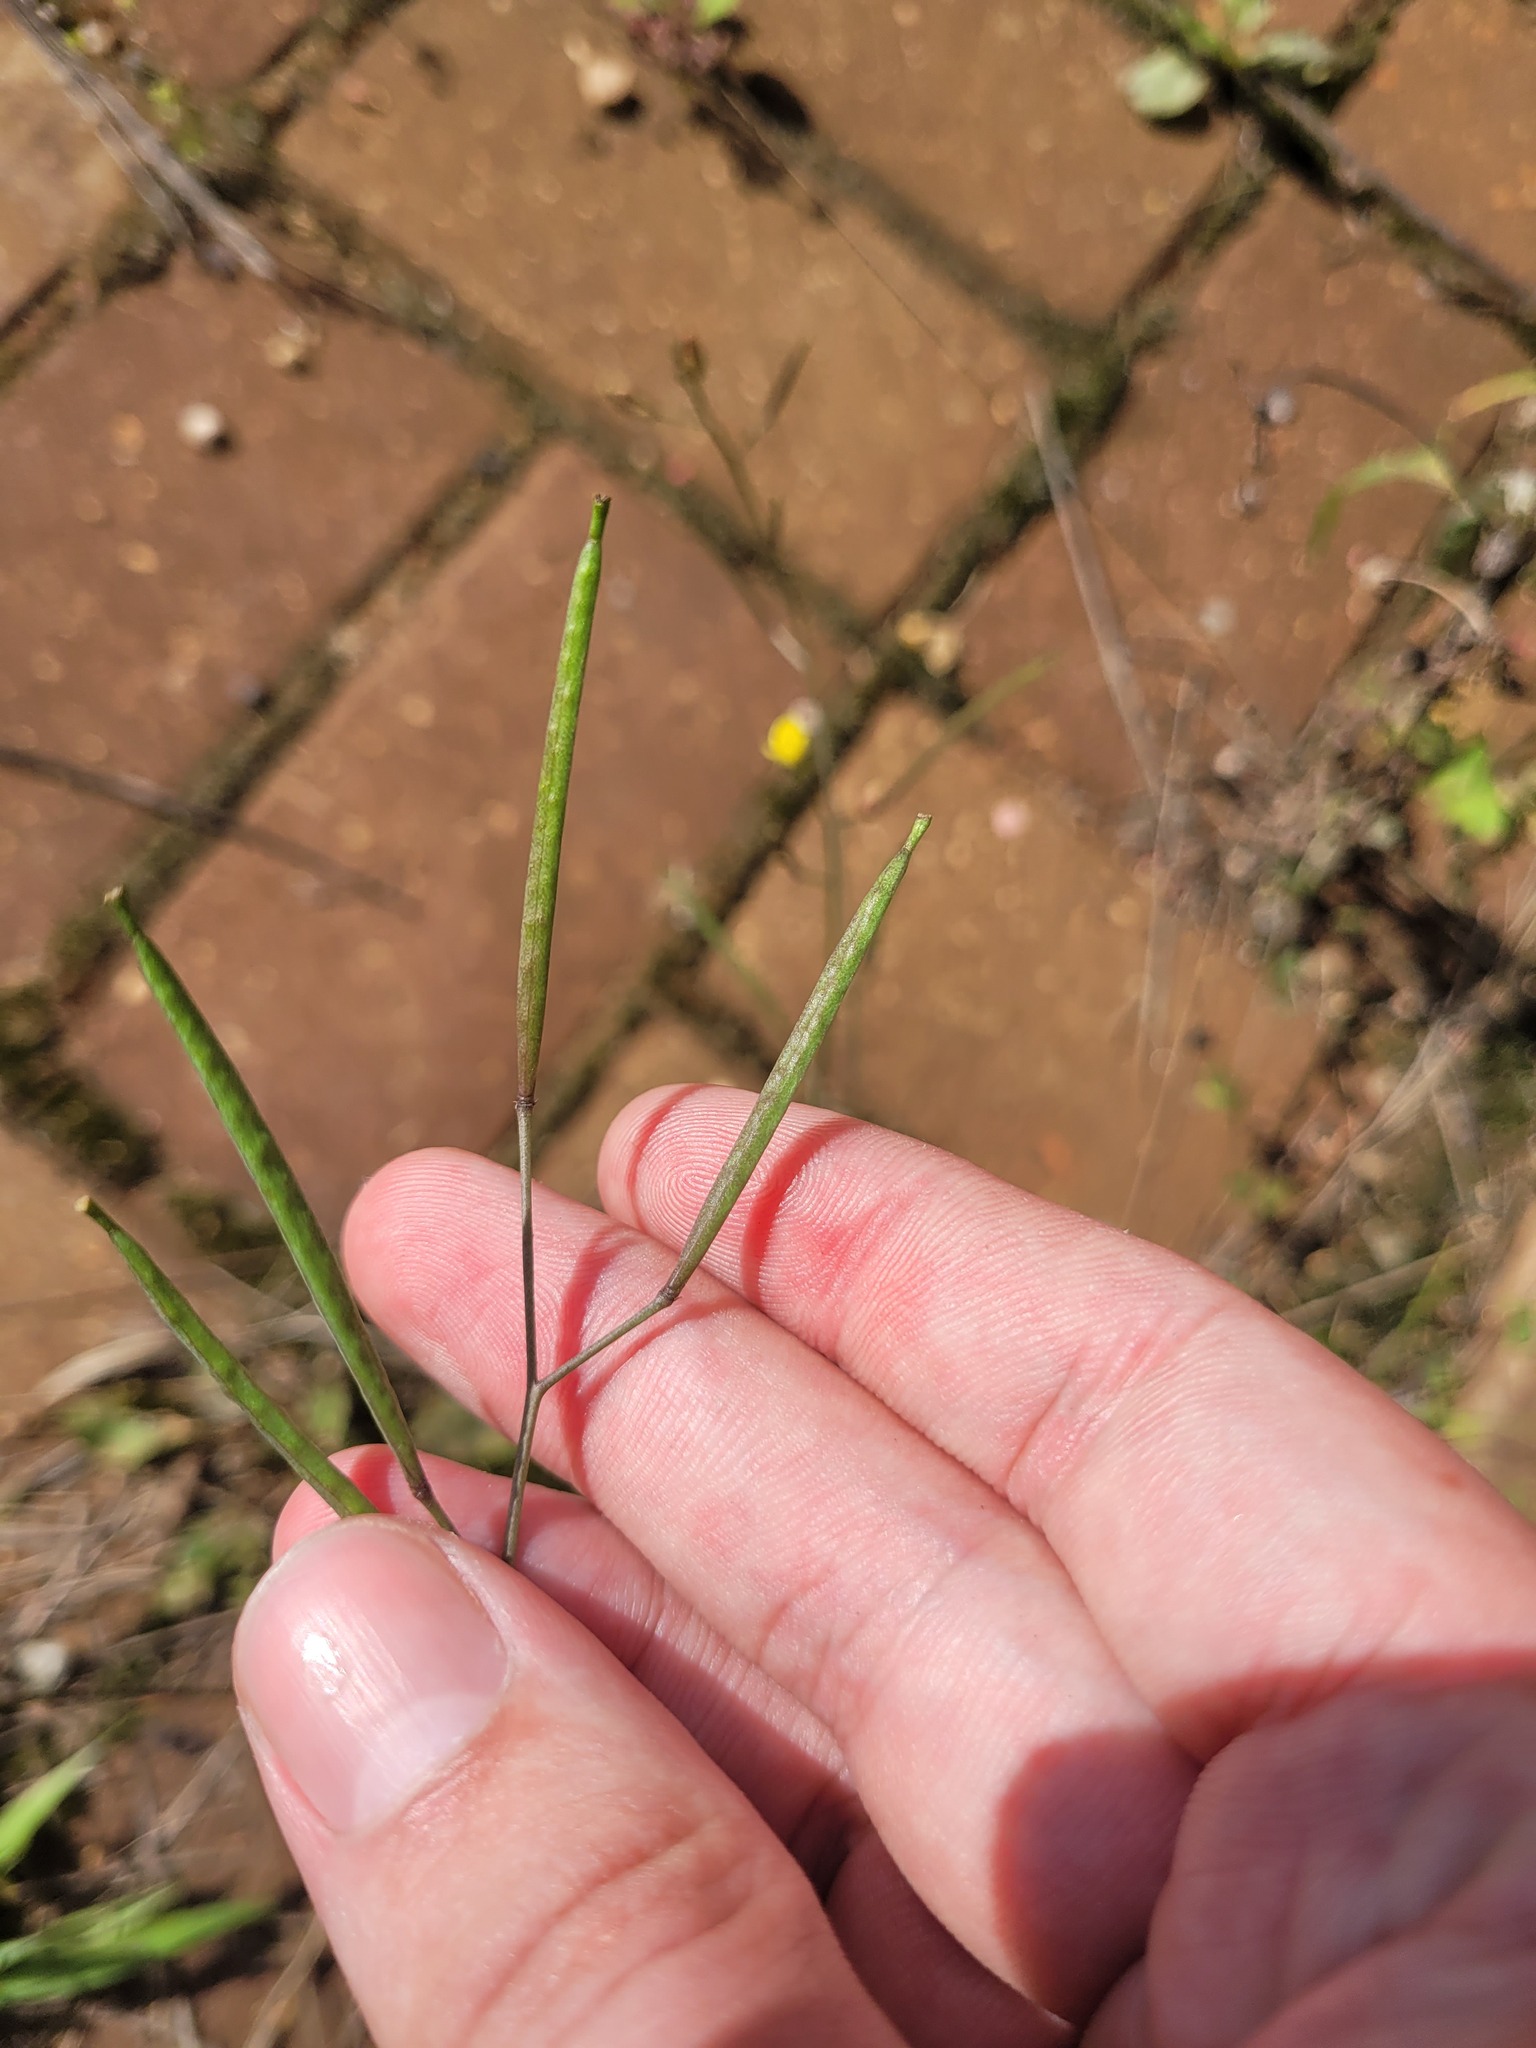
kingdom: Plantae
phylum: Tracheophyta
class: Magnoliopsida
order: Brassicales
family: Brassicaceae
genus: Diplotaxis
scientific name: Diplotaxis muralis
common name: Annual wall-rocket
